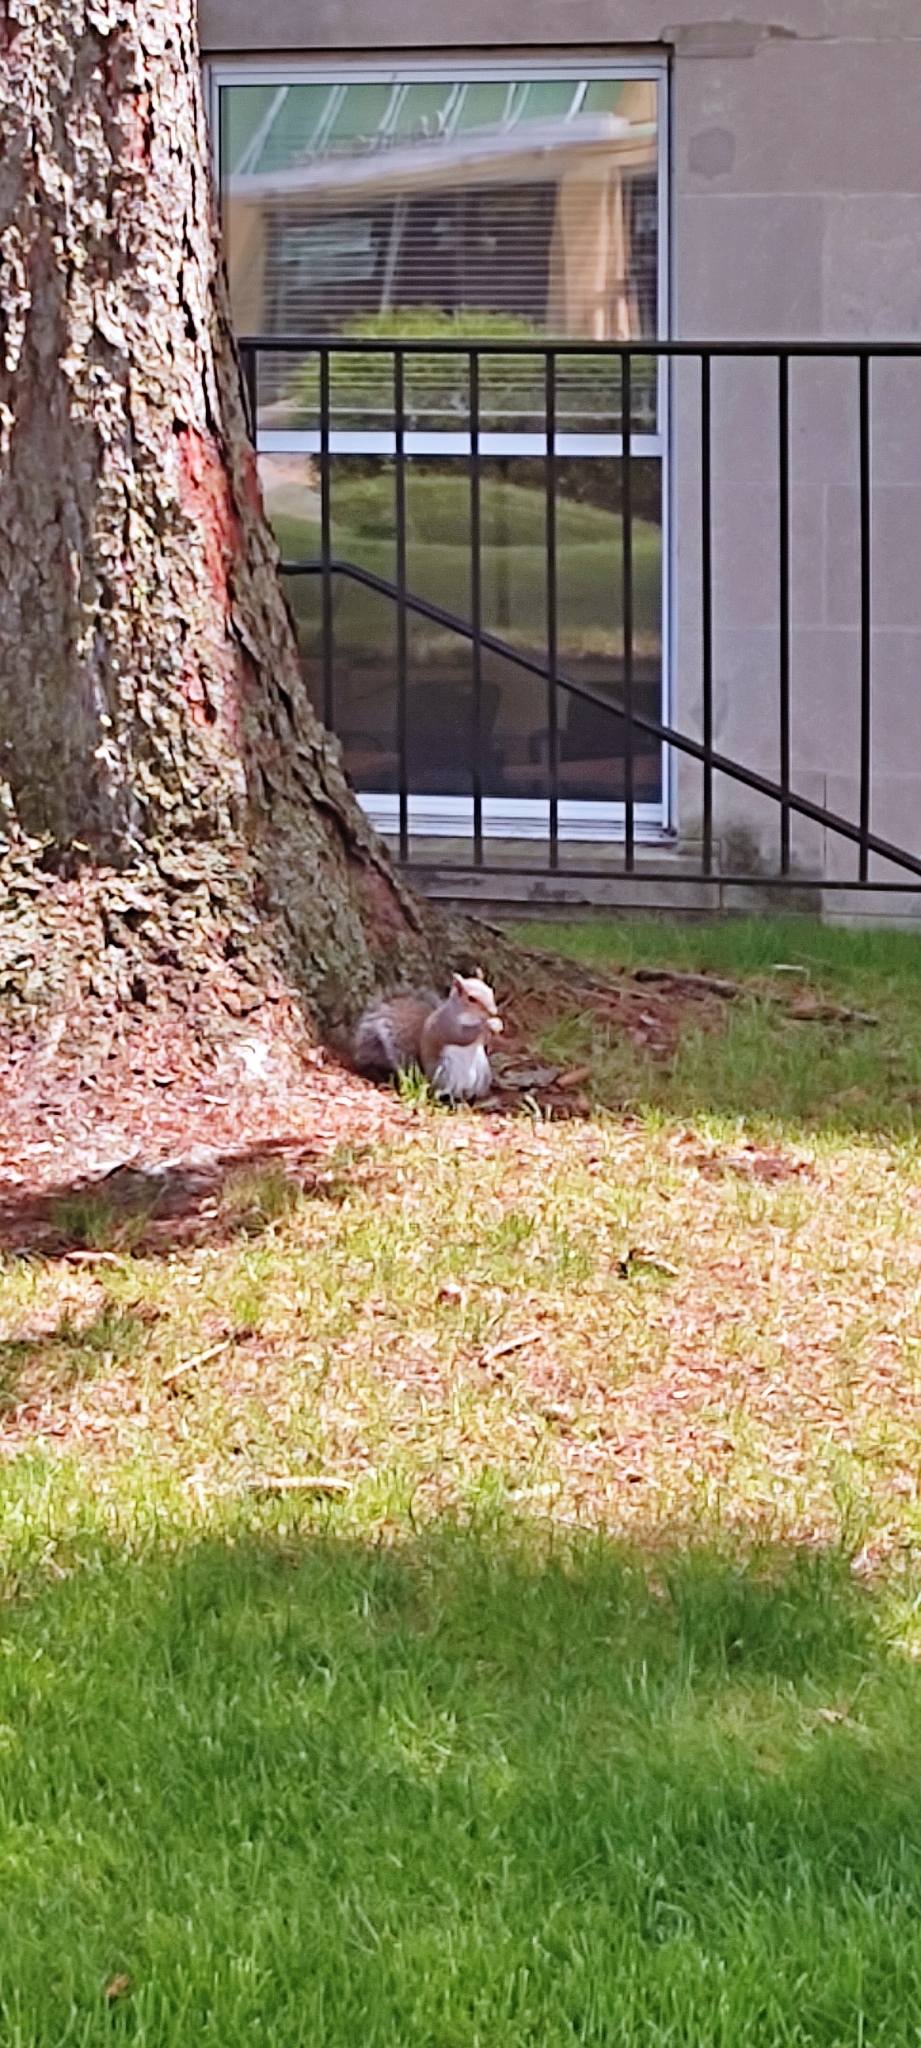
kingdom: Animalia
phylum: Chordata
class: Mammalia
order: Rodentia
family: Sciuridae
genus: Sciurus
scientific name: Sciurus carolinensis
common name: Eastern gray squirrel
